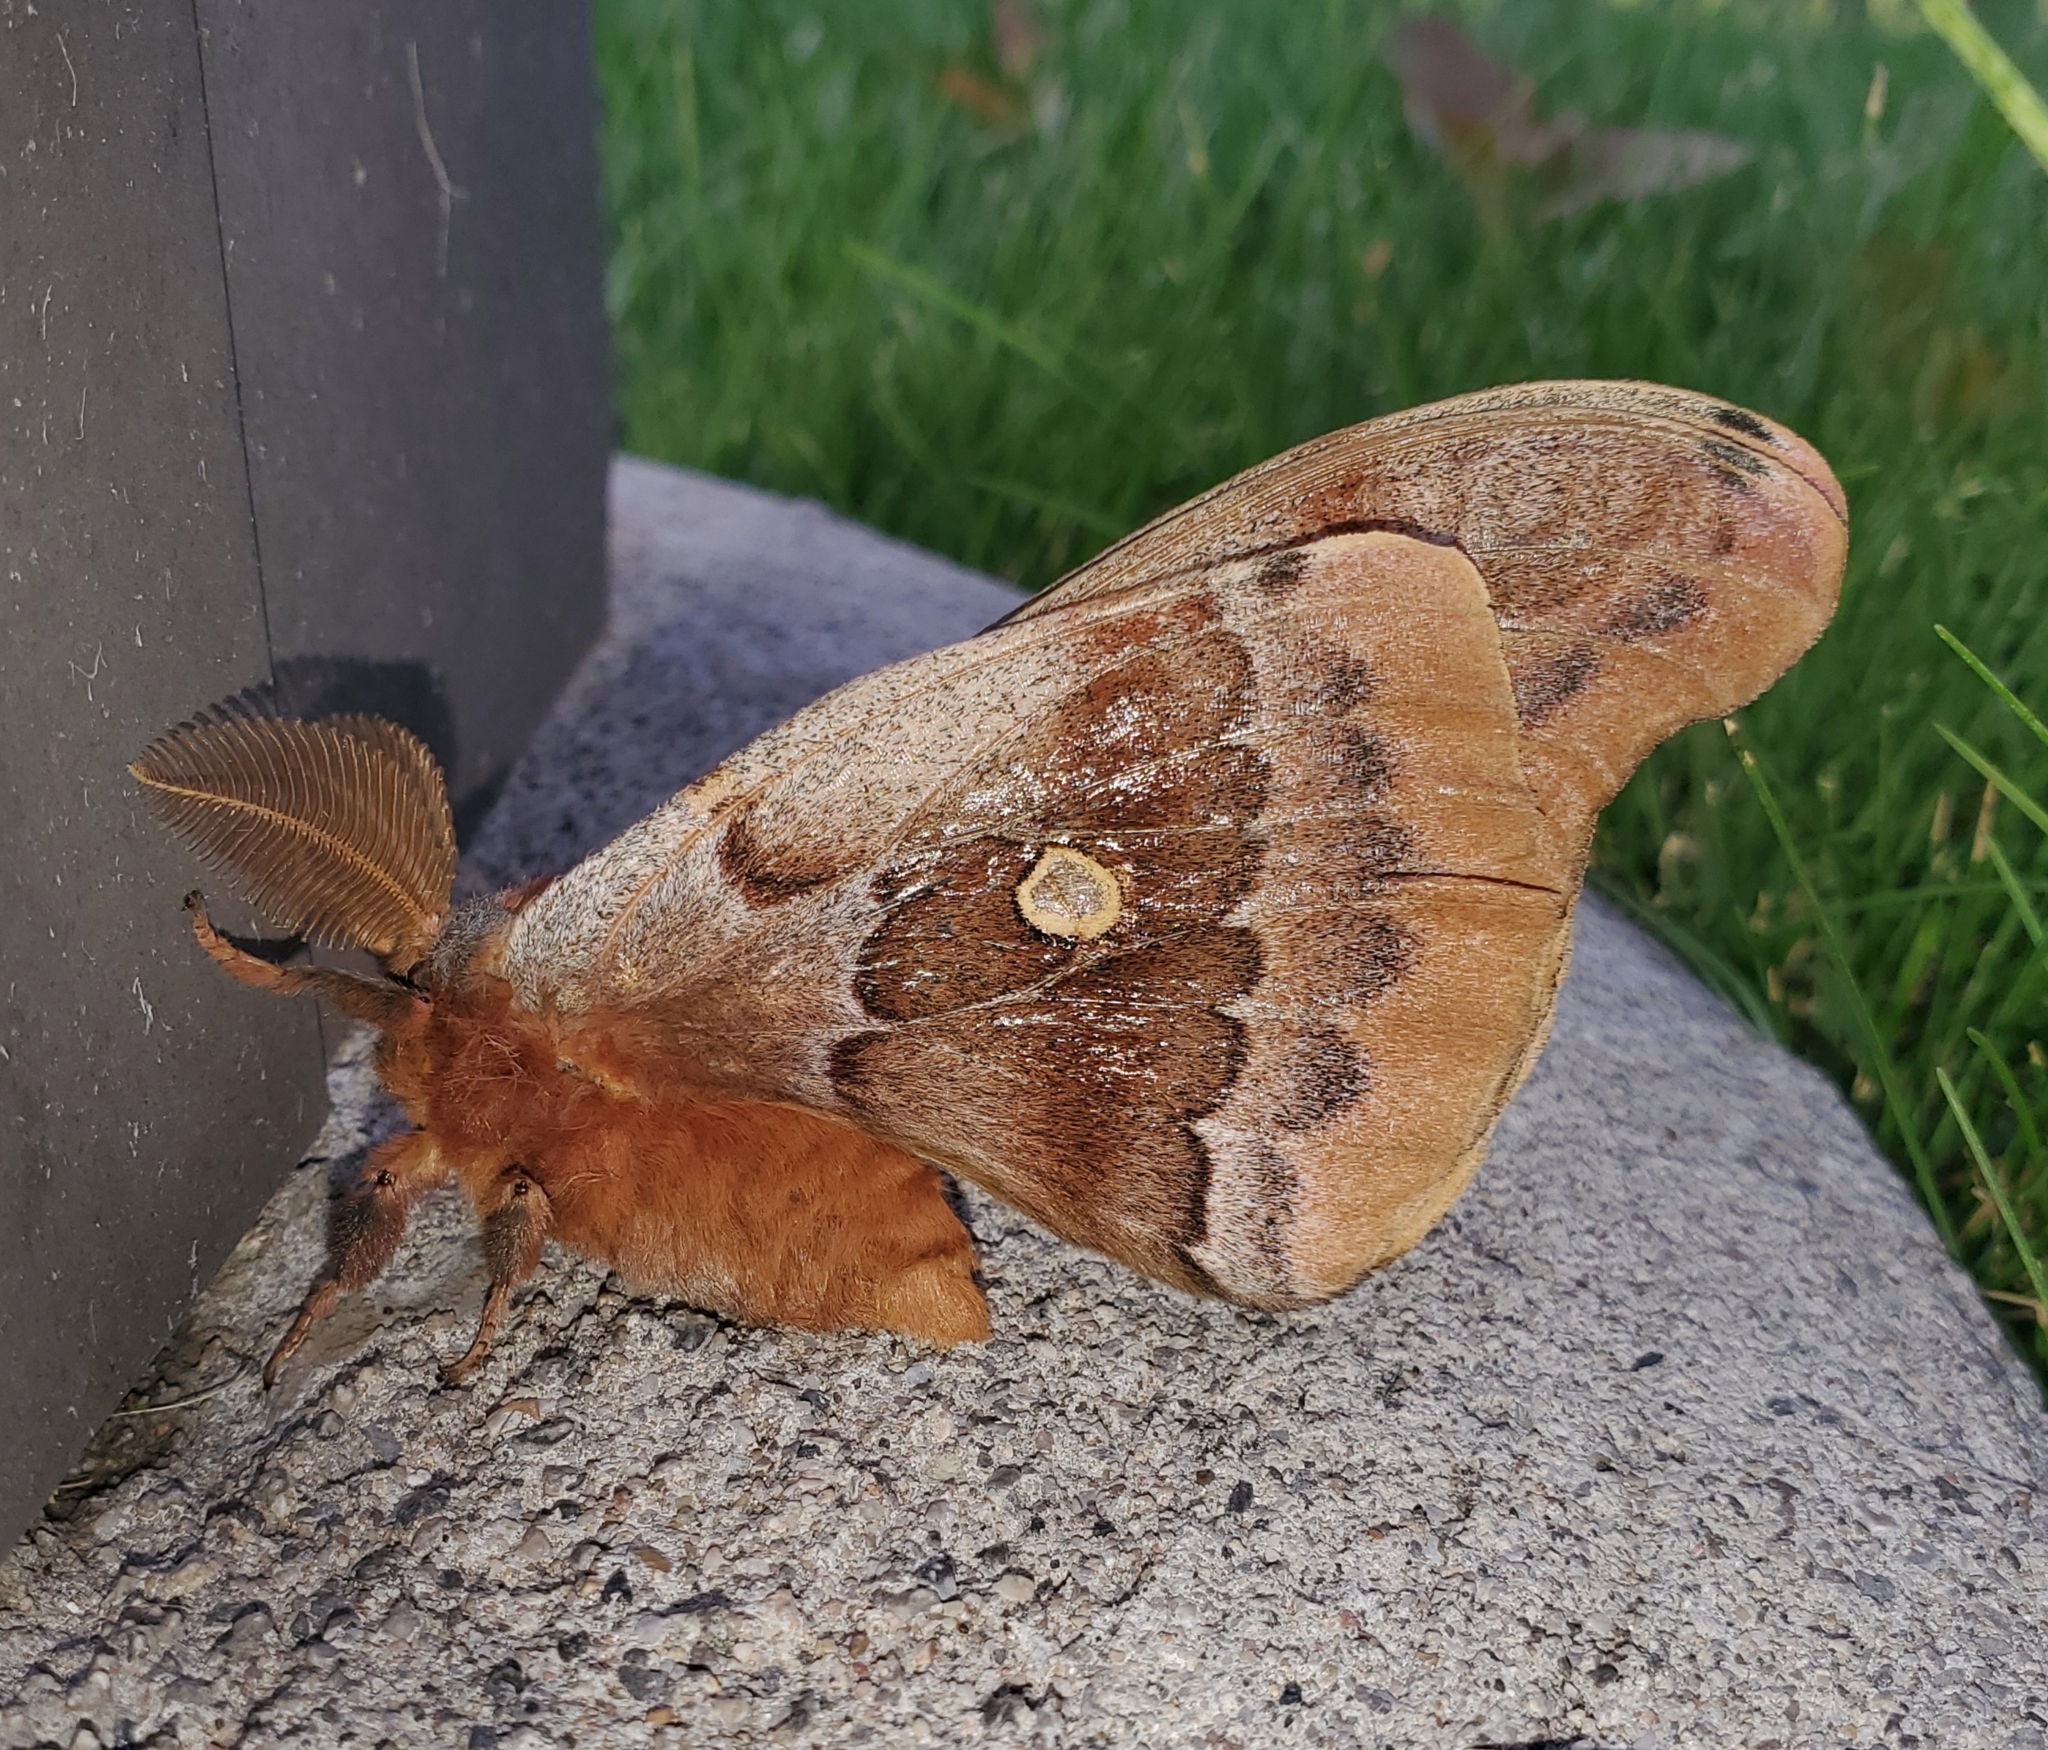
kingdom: Animalia
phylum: Arthropoda
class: Insecta
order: Lepidoptera
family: Saturniidae
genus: Antheraea
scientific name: Antheraea polyphemus
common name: Polyphemus moth
